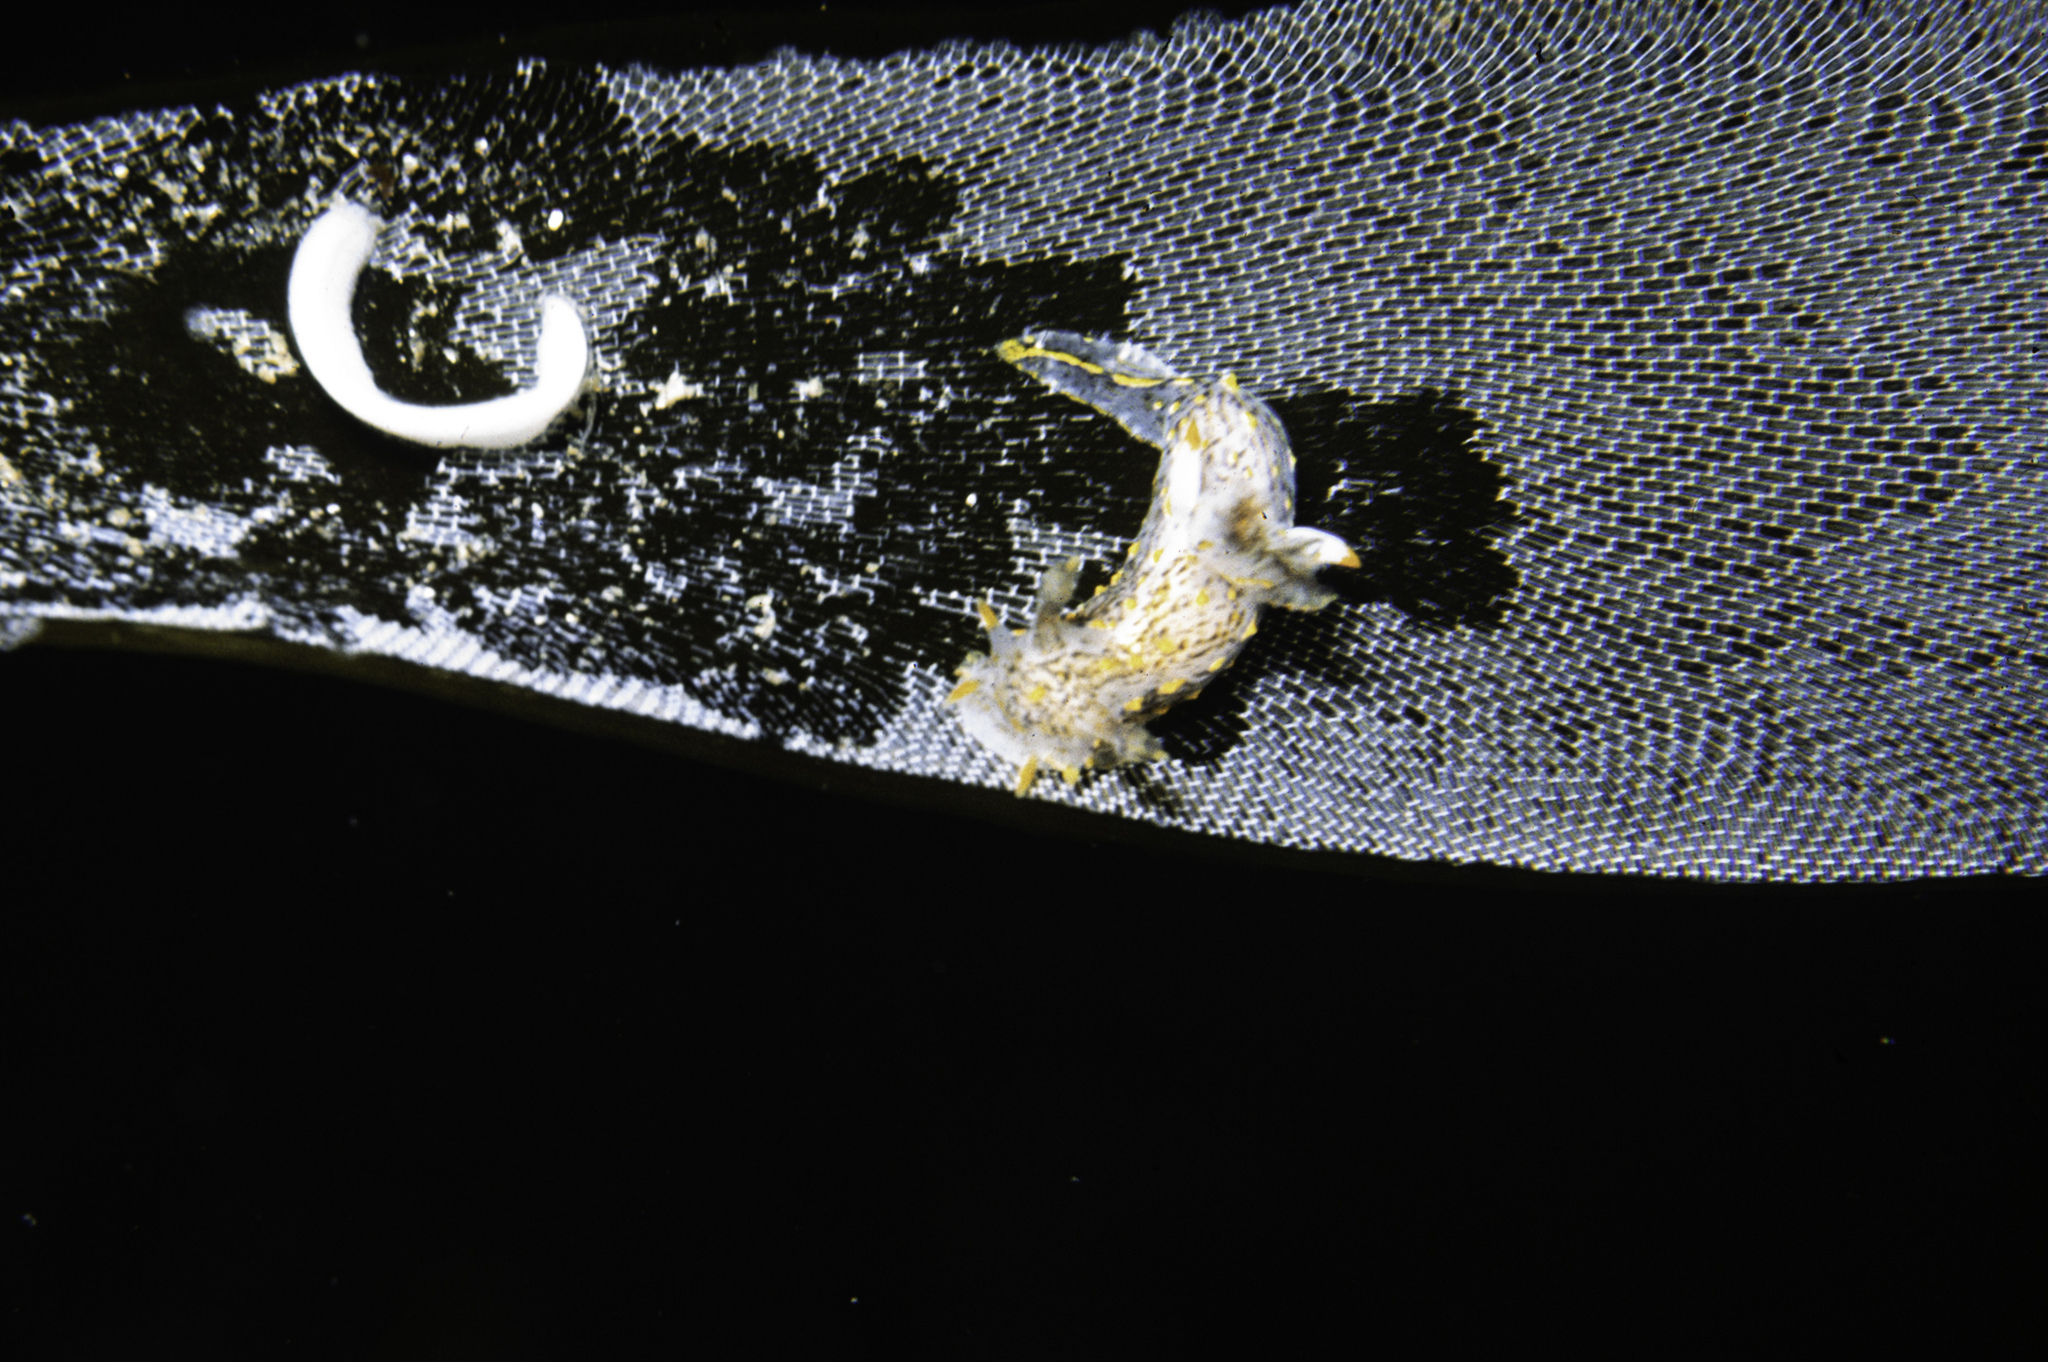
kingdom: Animalia
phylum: Mollusca
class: Gastropoda
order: Nudibranchia
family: Polyceridae
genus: Polycera
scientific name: Polycera norvegica
